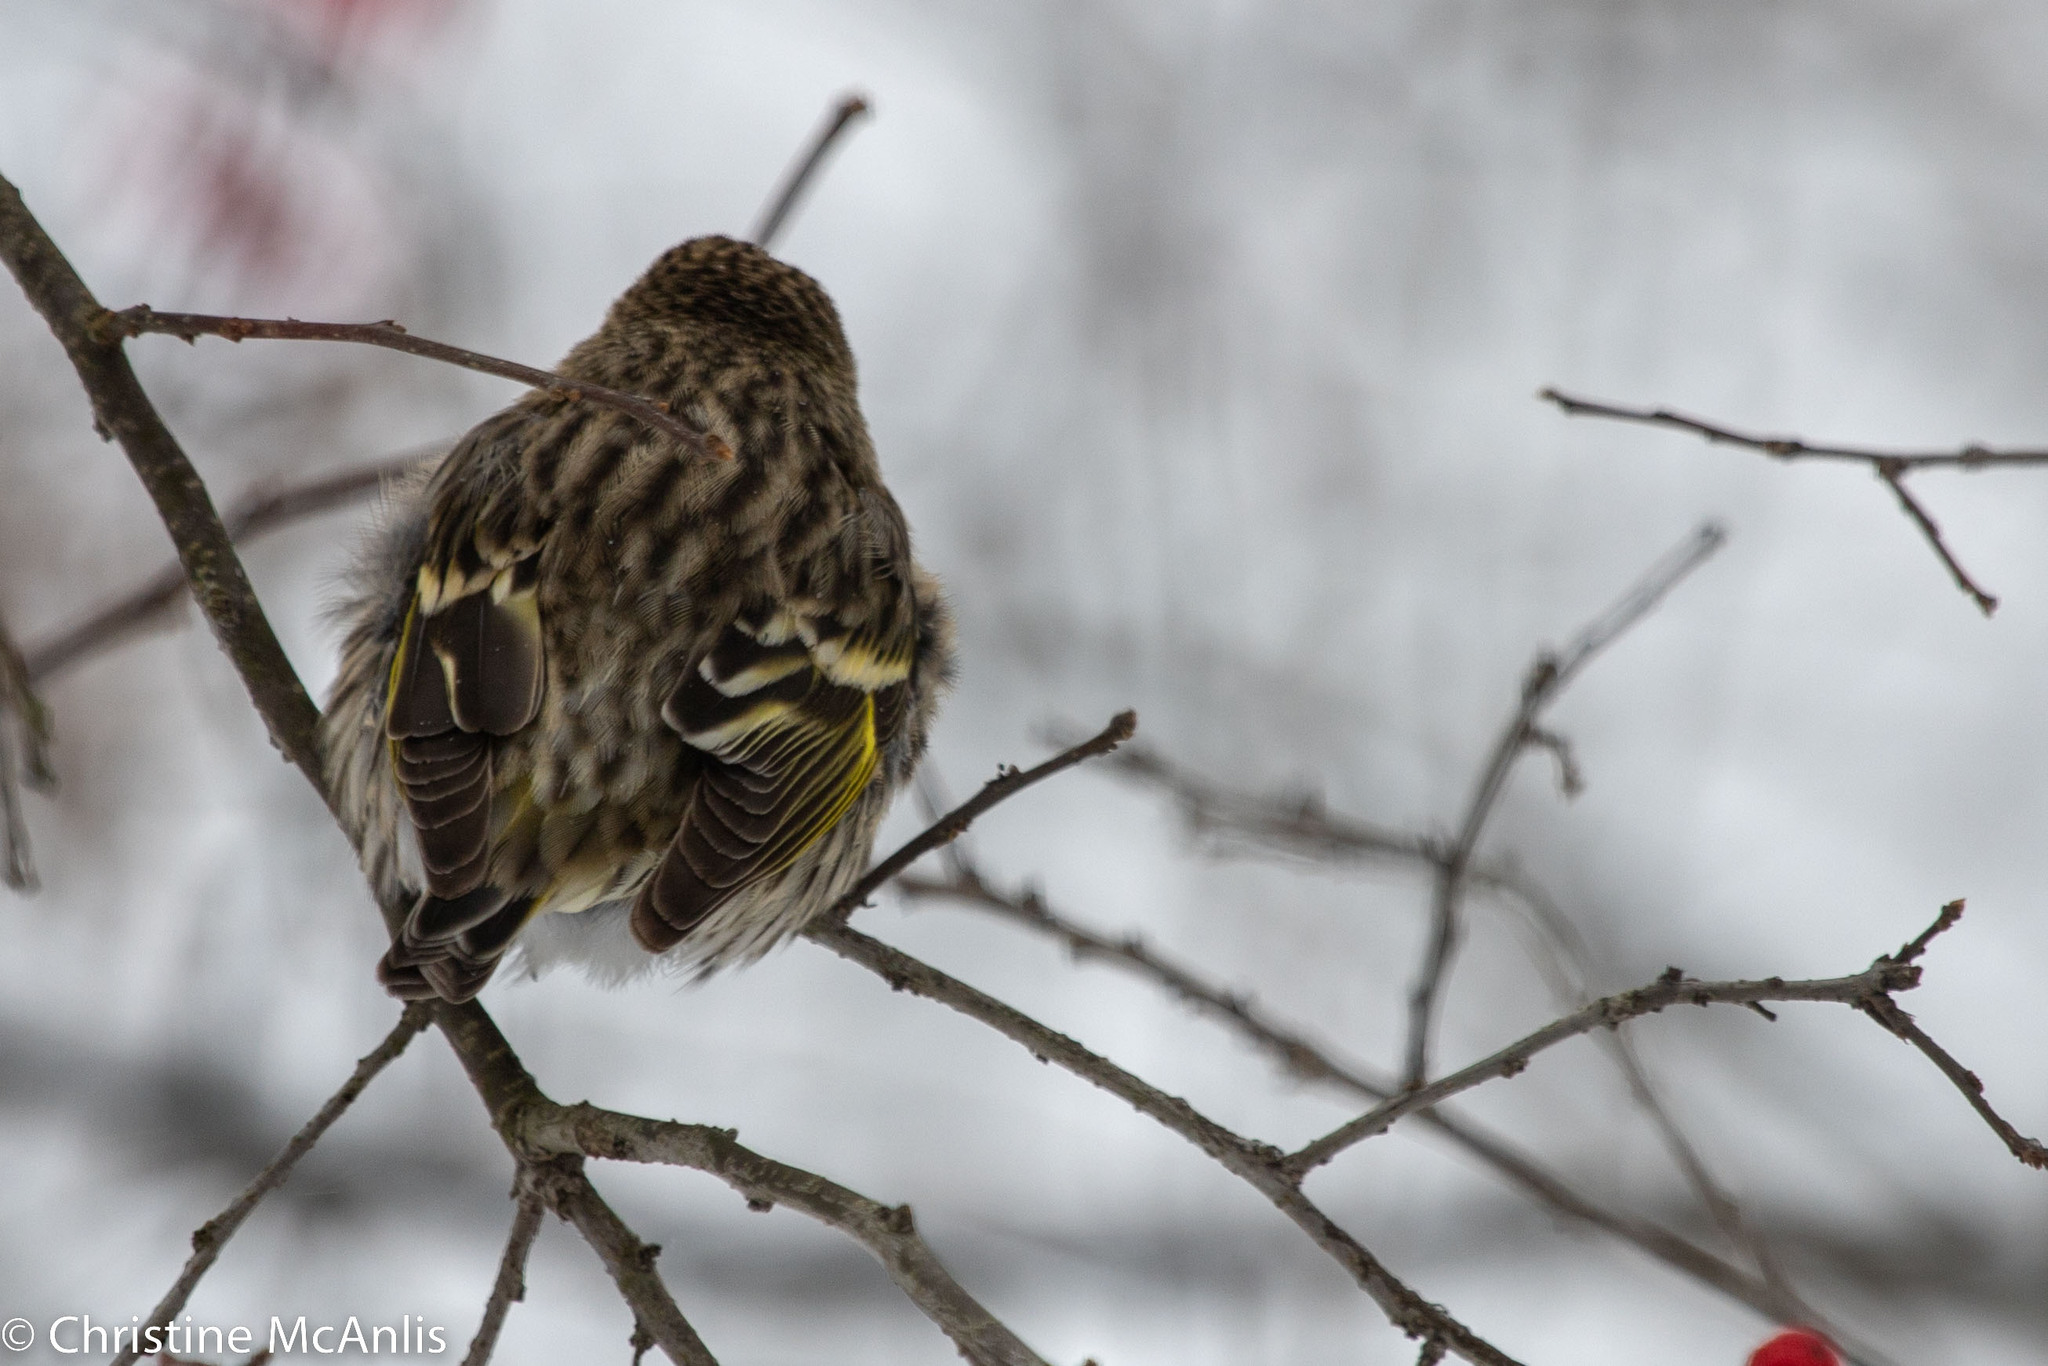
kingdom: Animalia
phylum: Chordata
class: Aves
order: Passeriformes
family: Fringillidae
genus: Spinus
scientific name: Spinus pinus
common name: Pine siskin
